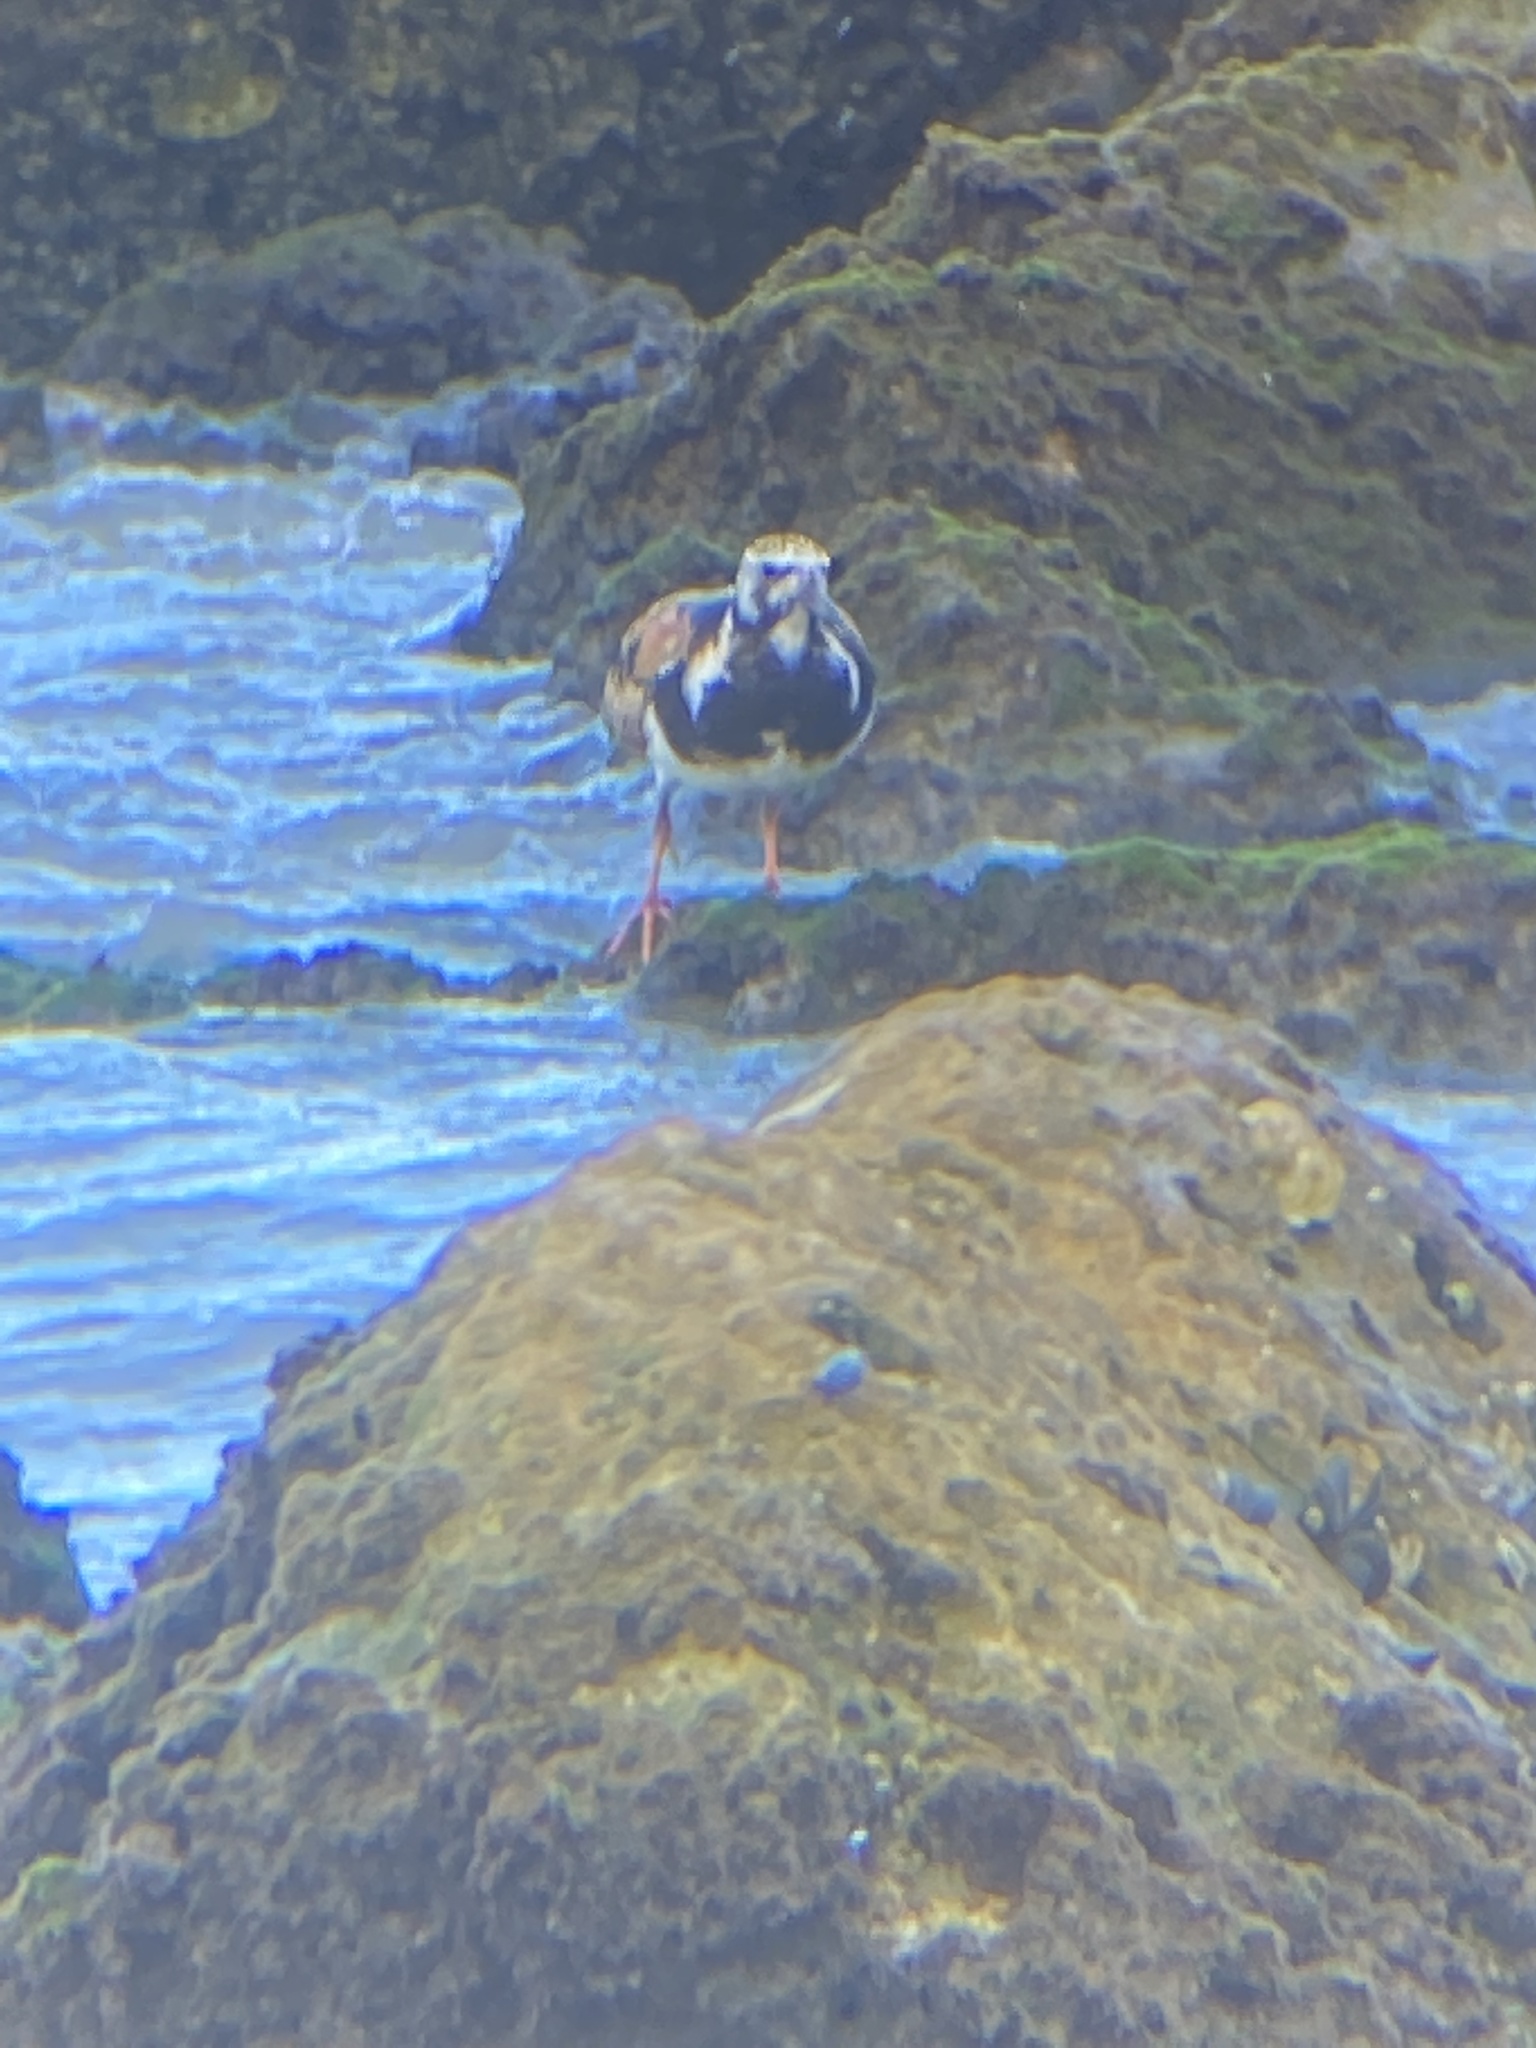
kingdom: Animalia
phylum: Chordata
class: Aves
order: Charadriiformes
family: Scolopacidae
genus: Arenaria
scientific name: Arenaria interpres
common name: Ruddy turnstone
